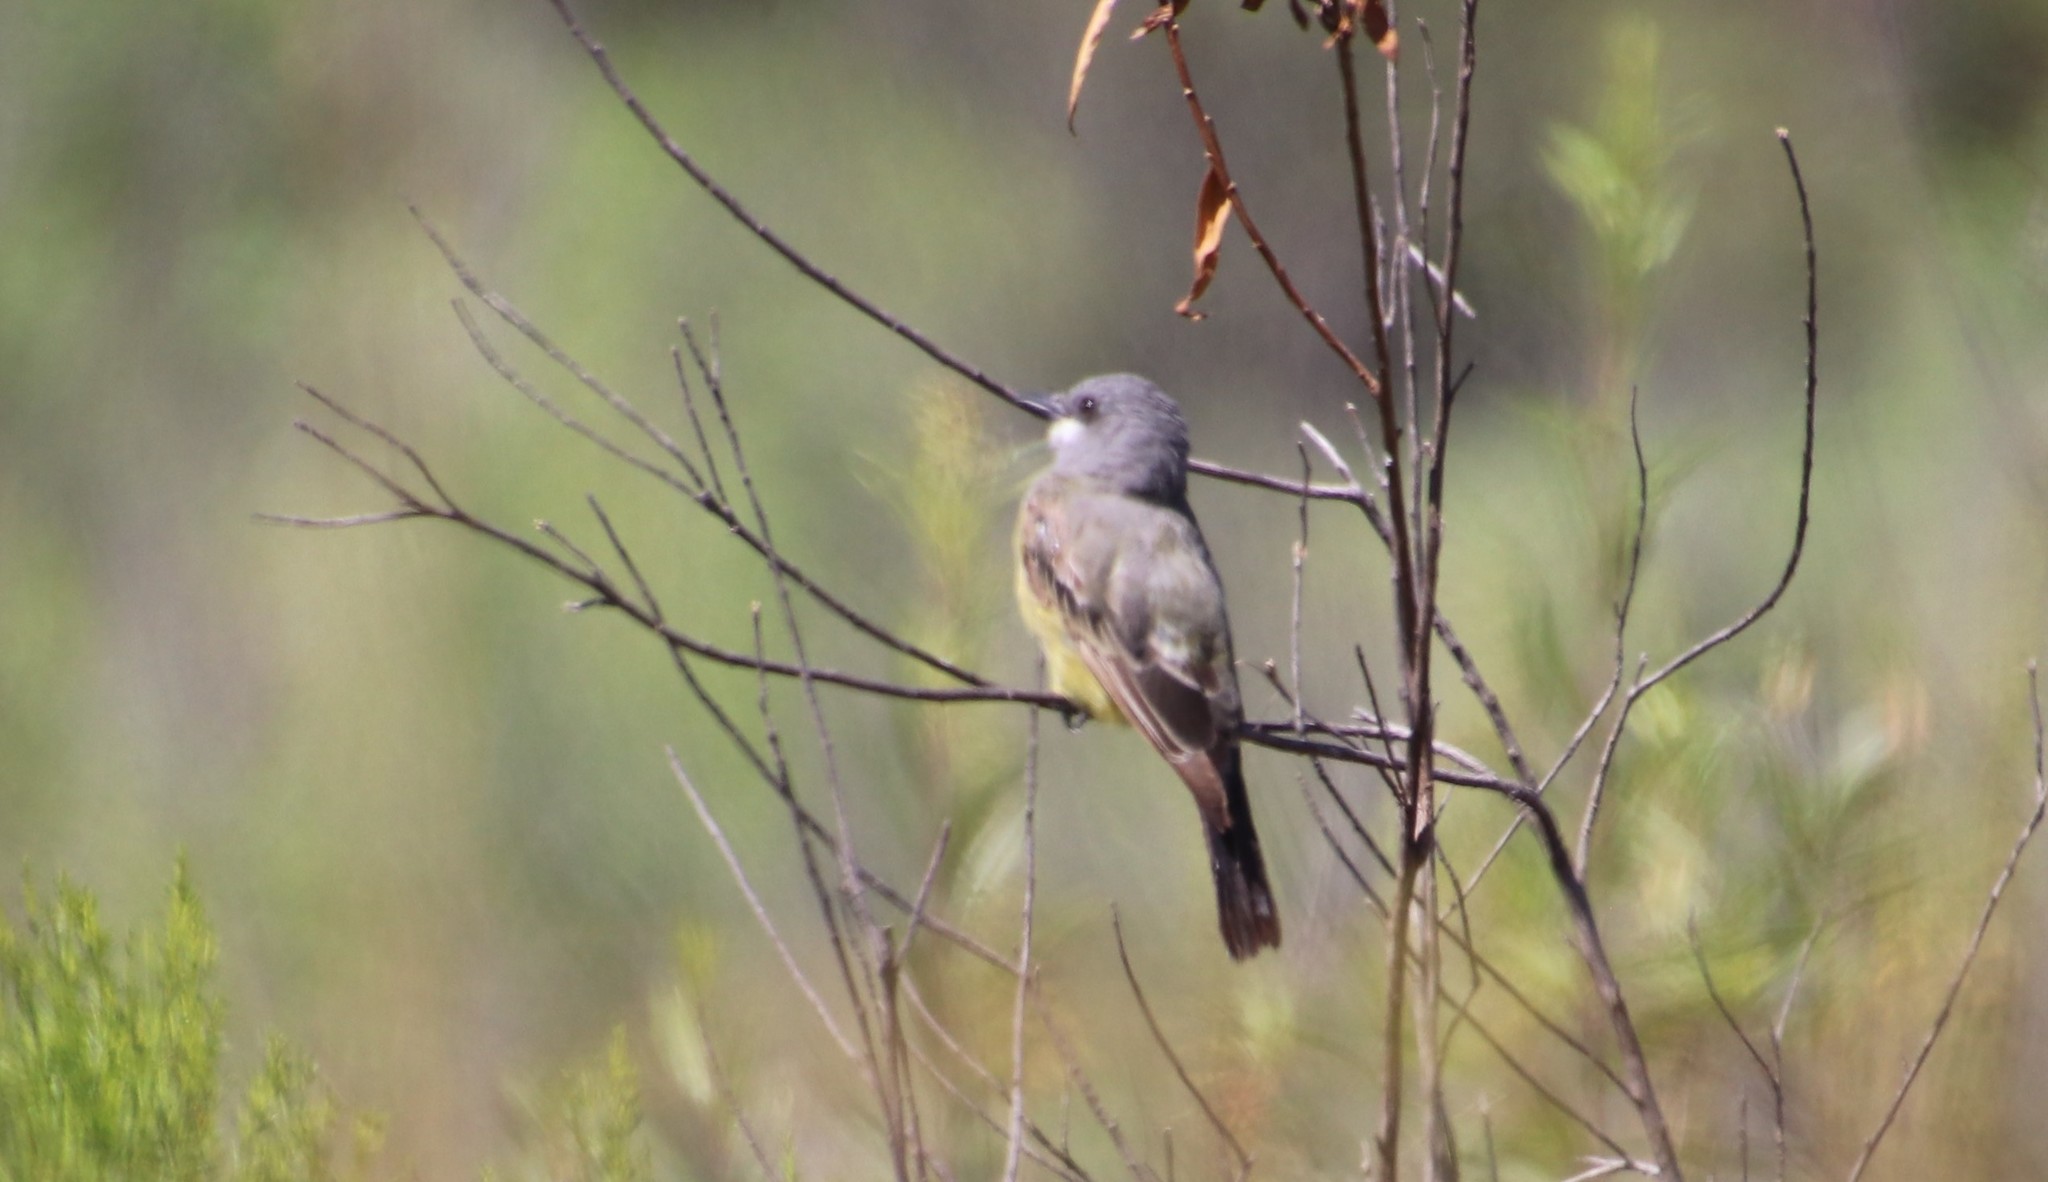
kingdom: Animalia
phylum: Chordata
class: Aves
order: Passeriformes
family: Tyrannidae
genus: Tyrannus
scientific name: Tyrannus vociferans
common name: Cassin's kingbird
